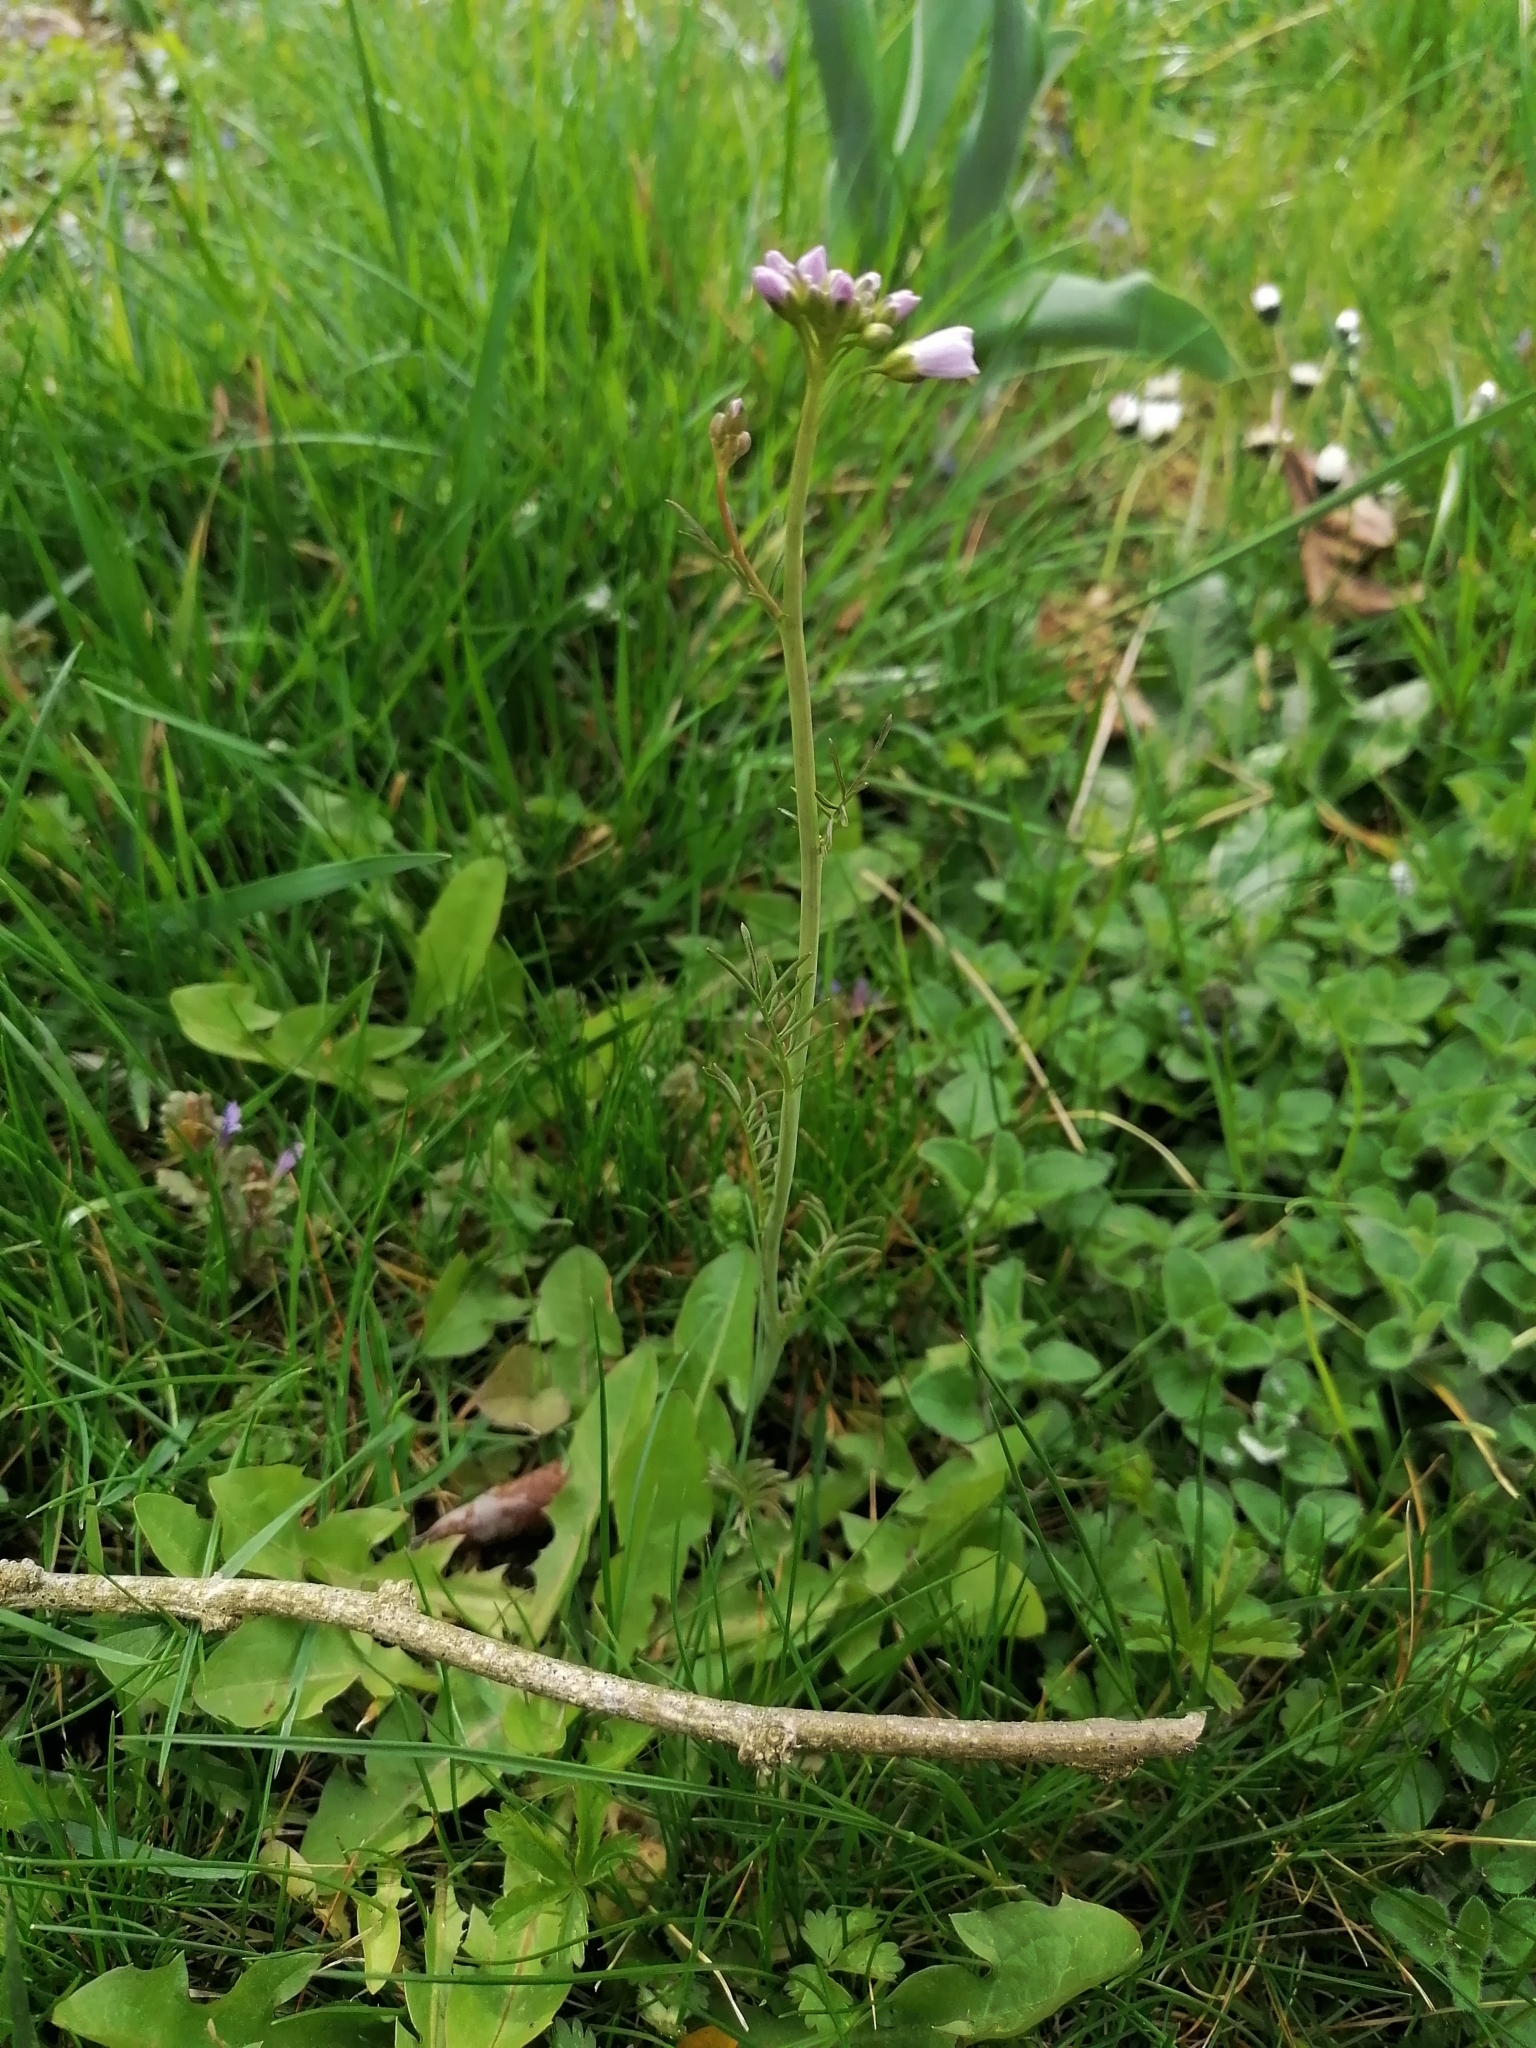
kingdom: Plantae
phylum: Tracheophyta
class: Magnoliopsida
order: Brassicales
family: Brassicaceae
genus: Cardamine
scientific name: Cardamine pratensis
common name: Cuckoo flower
